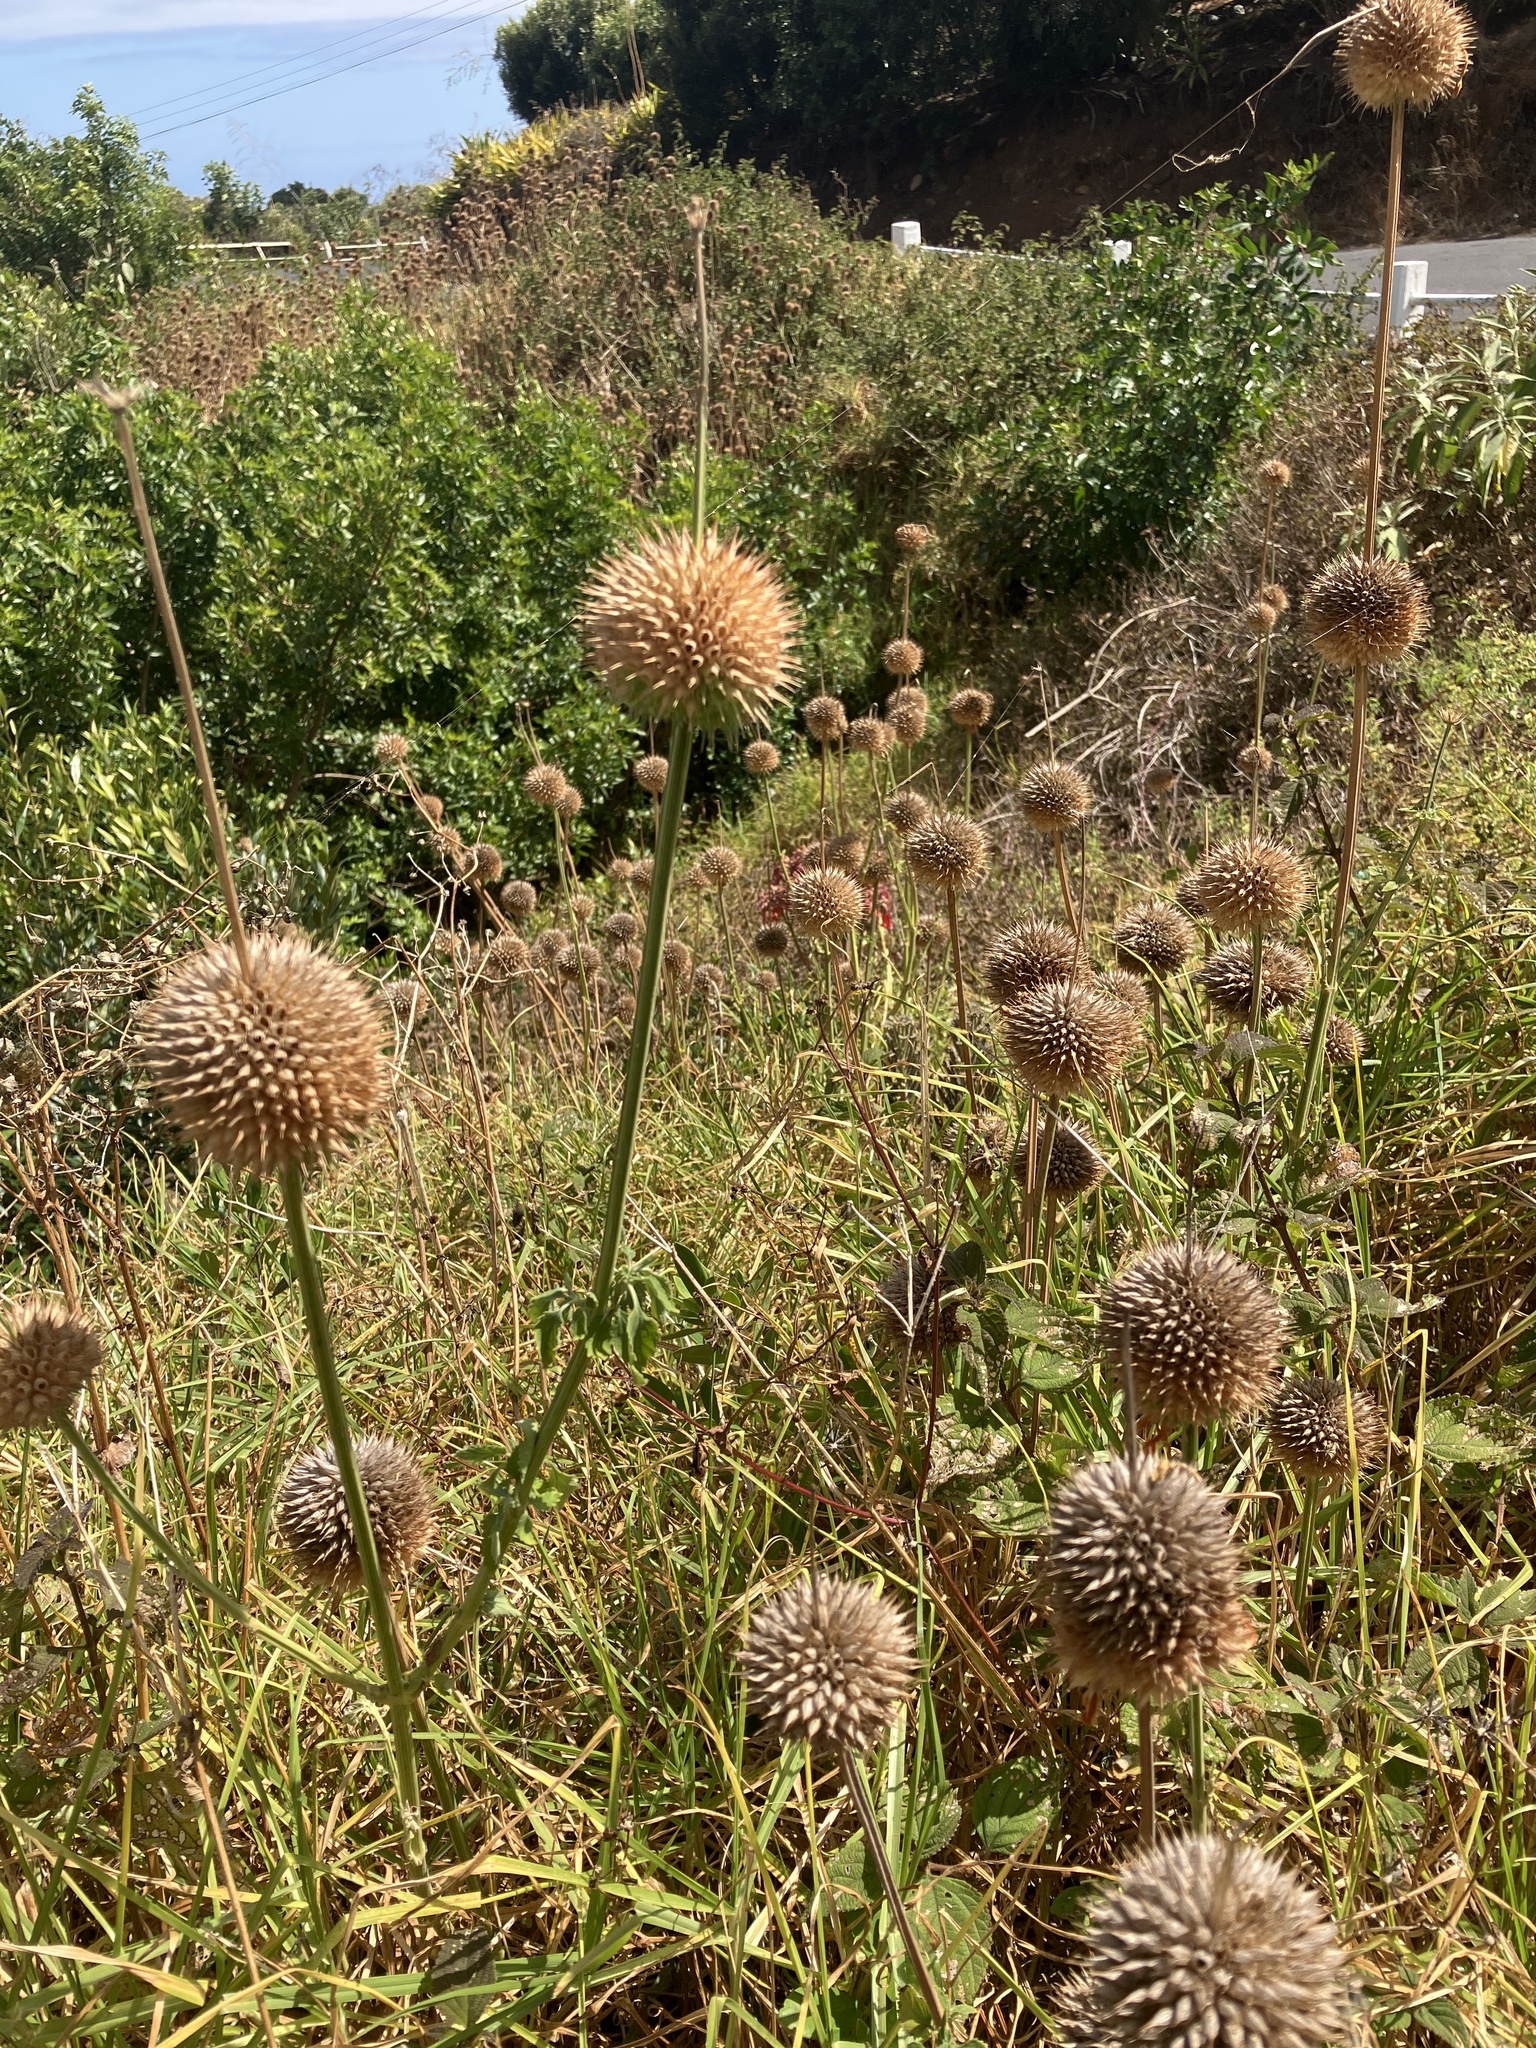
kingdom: Plantae
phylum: Tracheophyta
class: Magnoliopsida
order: Lamiales
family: Lamiaceae
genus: Leonotis
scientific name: Leonotis nepetifolia
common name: Christmas candlestick
